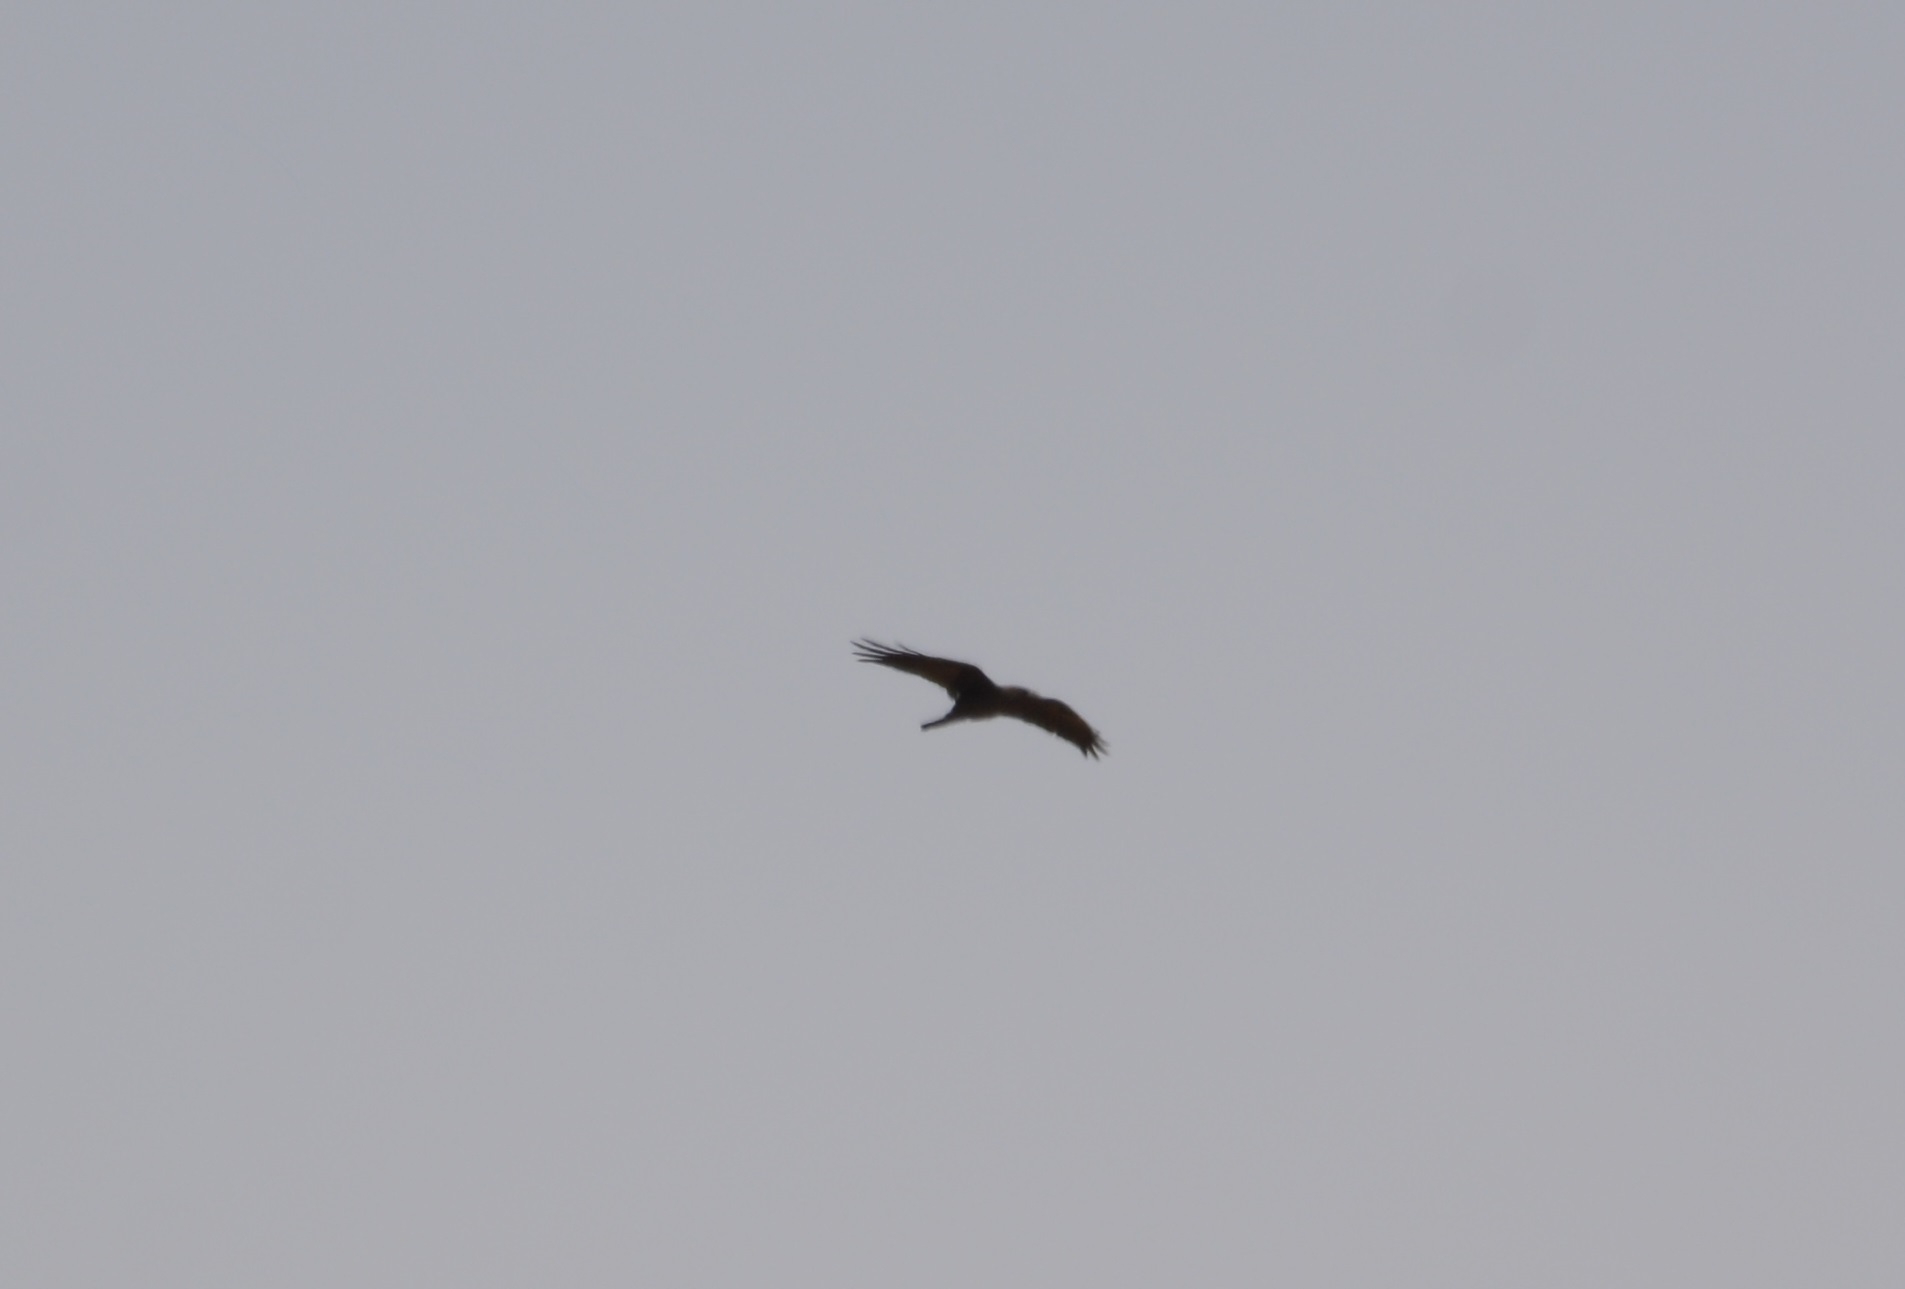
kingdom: Animalia
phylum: Chordata
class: Aves
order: Passeriformes
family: Corvidae
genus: Corvus
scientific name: Corvus ruficollis
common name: Brown-necked raven
